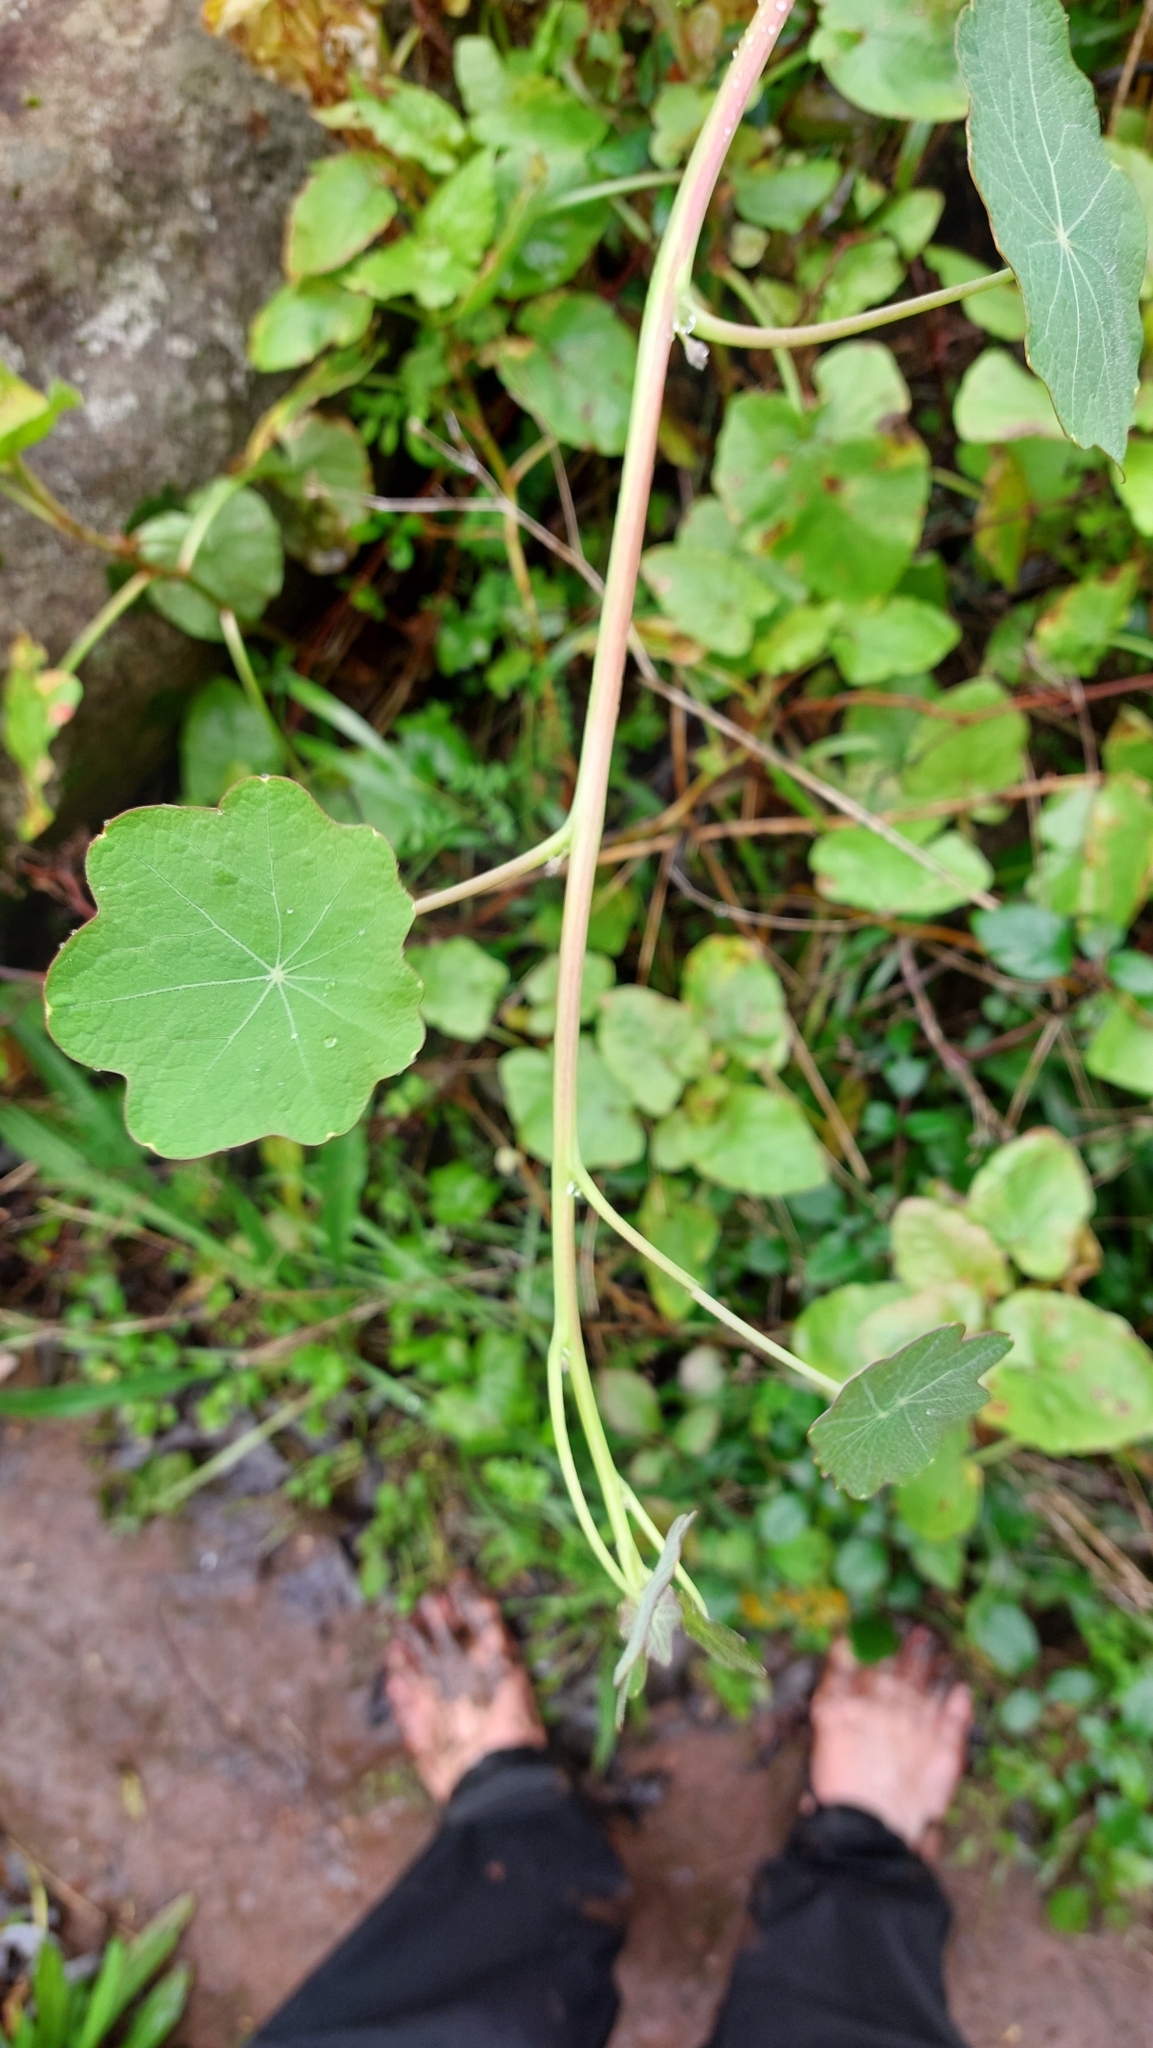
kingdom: Plantae
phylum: Tracheophyta
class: Magnoliopsida
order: Brassicales
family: Tropaeolaceae
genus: Tropaeolum
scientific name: Tropaeolum majus
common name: Nasturtium
